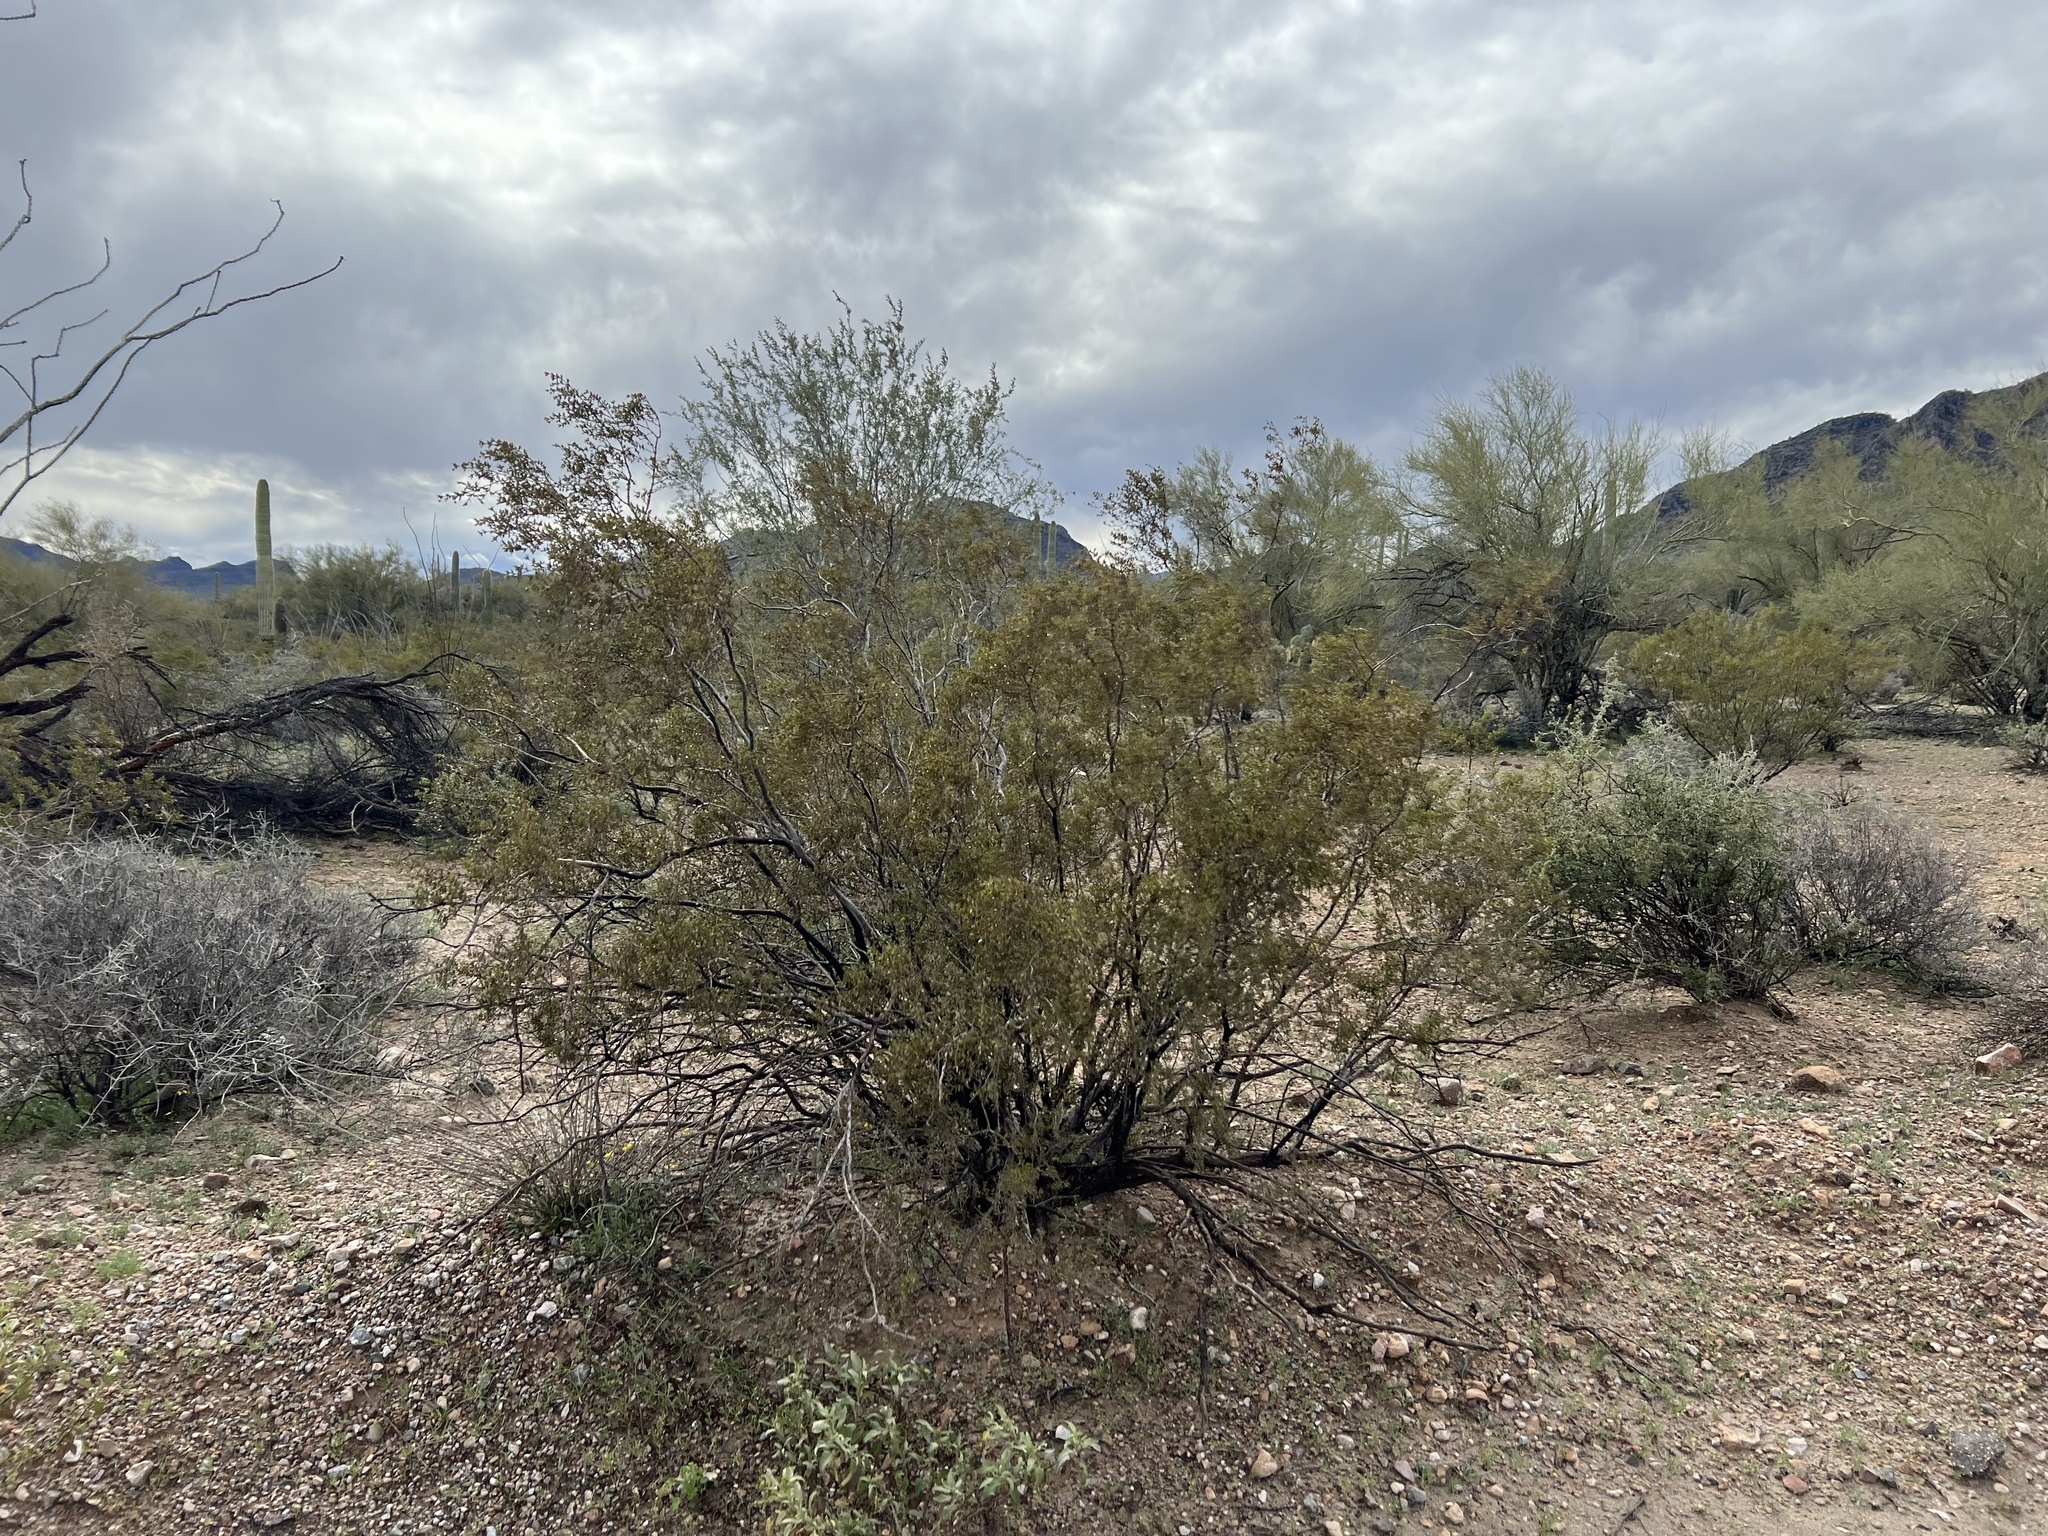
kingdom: Plantae
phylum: Tracheophyta
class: Magnoliopsida
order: Zygophyllales
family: Zygophyllaceae
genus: Larrea
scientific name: Larrea tridentata
